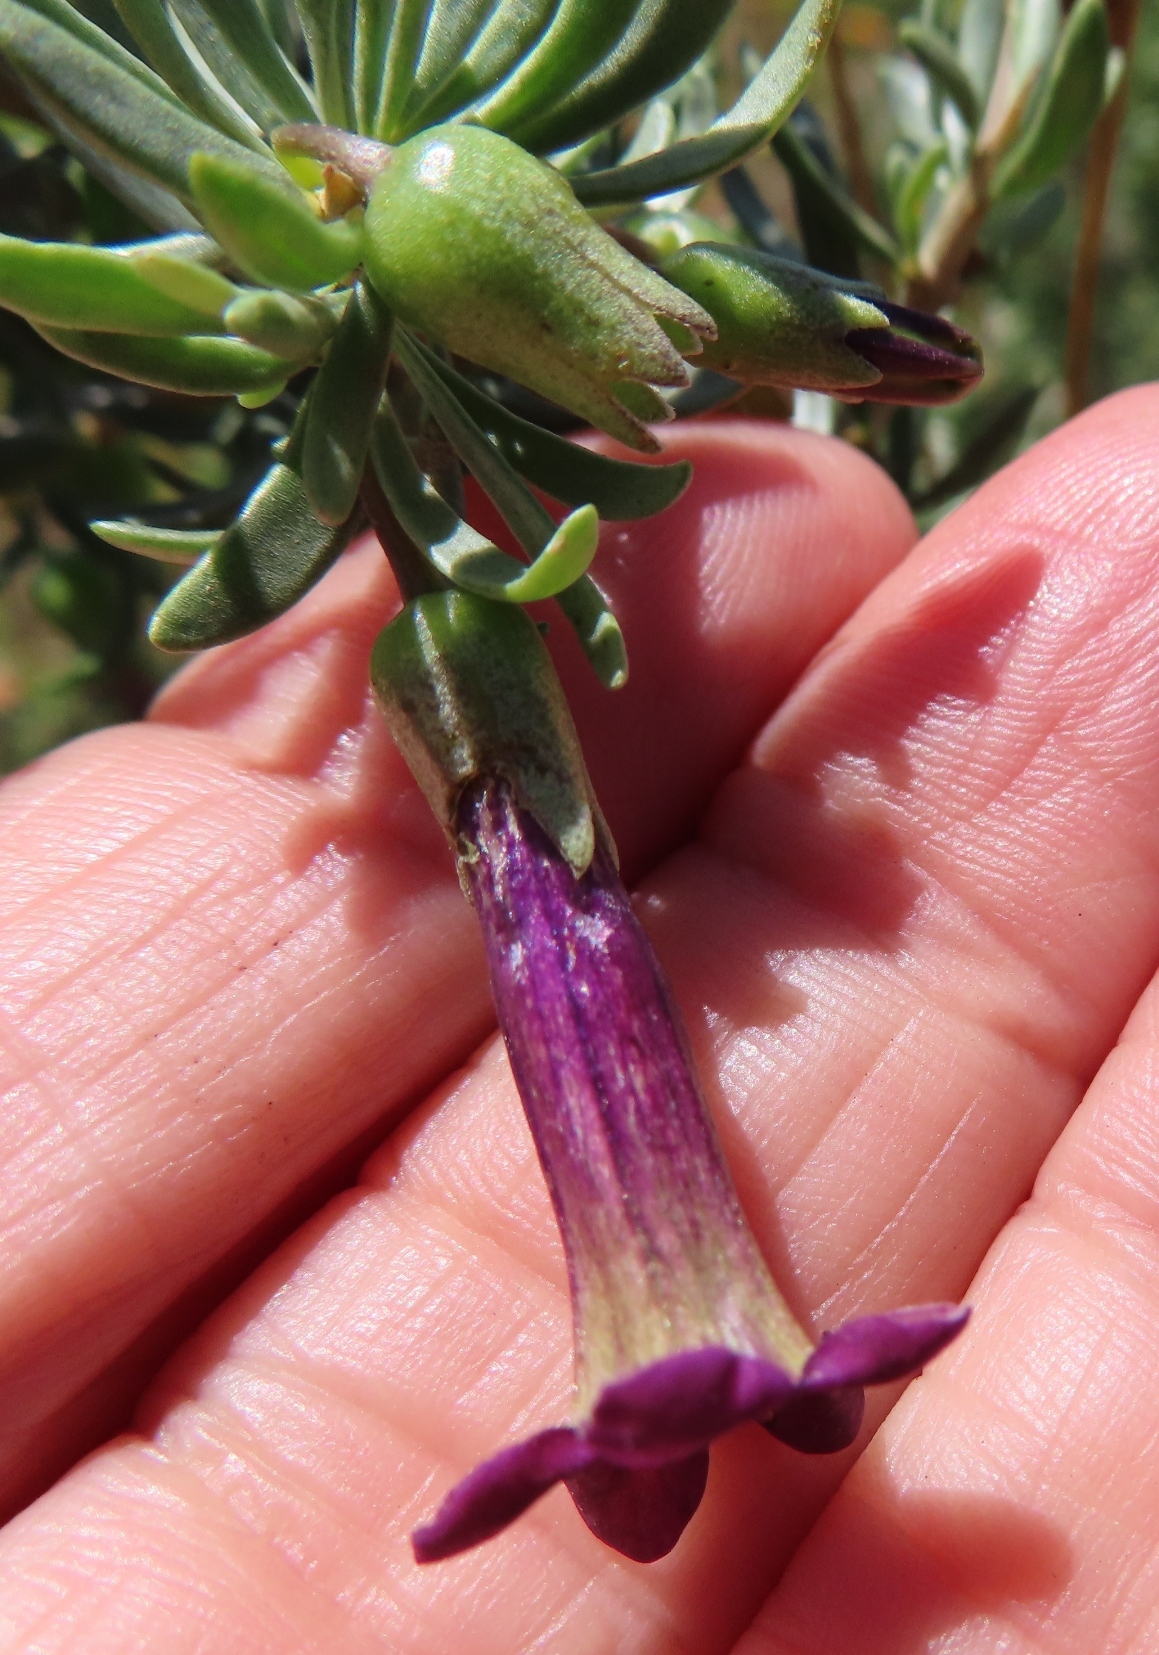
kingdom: Plantae
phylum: Tracheophyta
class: Magnoliopsida
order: Solanales
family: Solanaceae
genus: Lycium
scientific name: Lycium afrum
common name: Kaffir boxthorn
